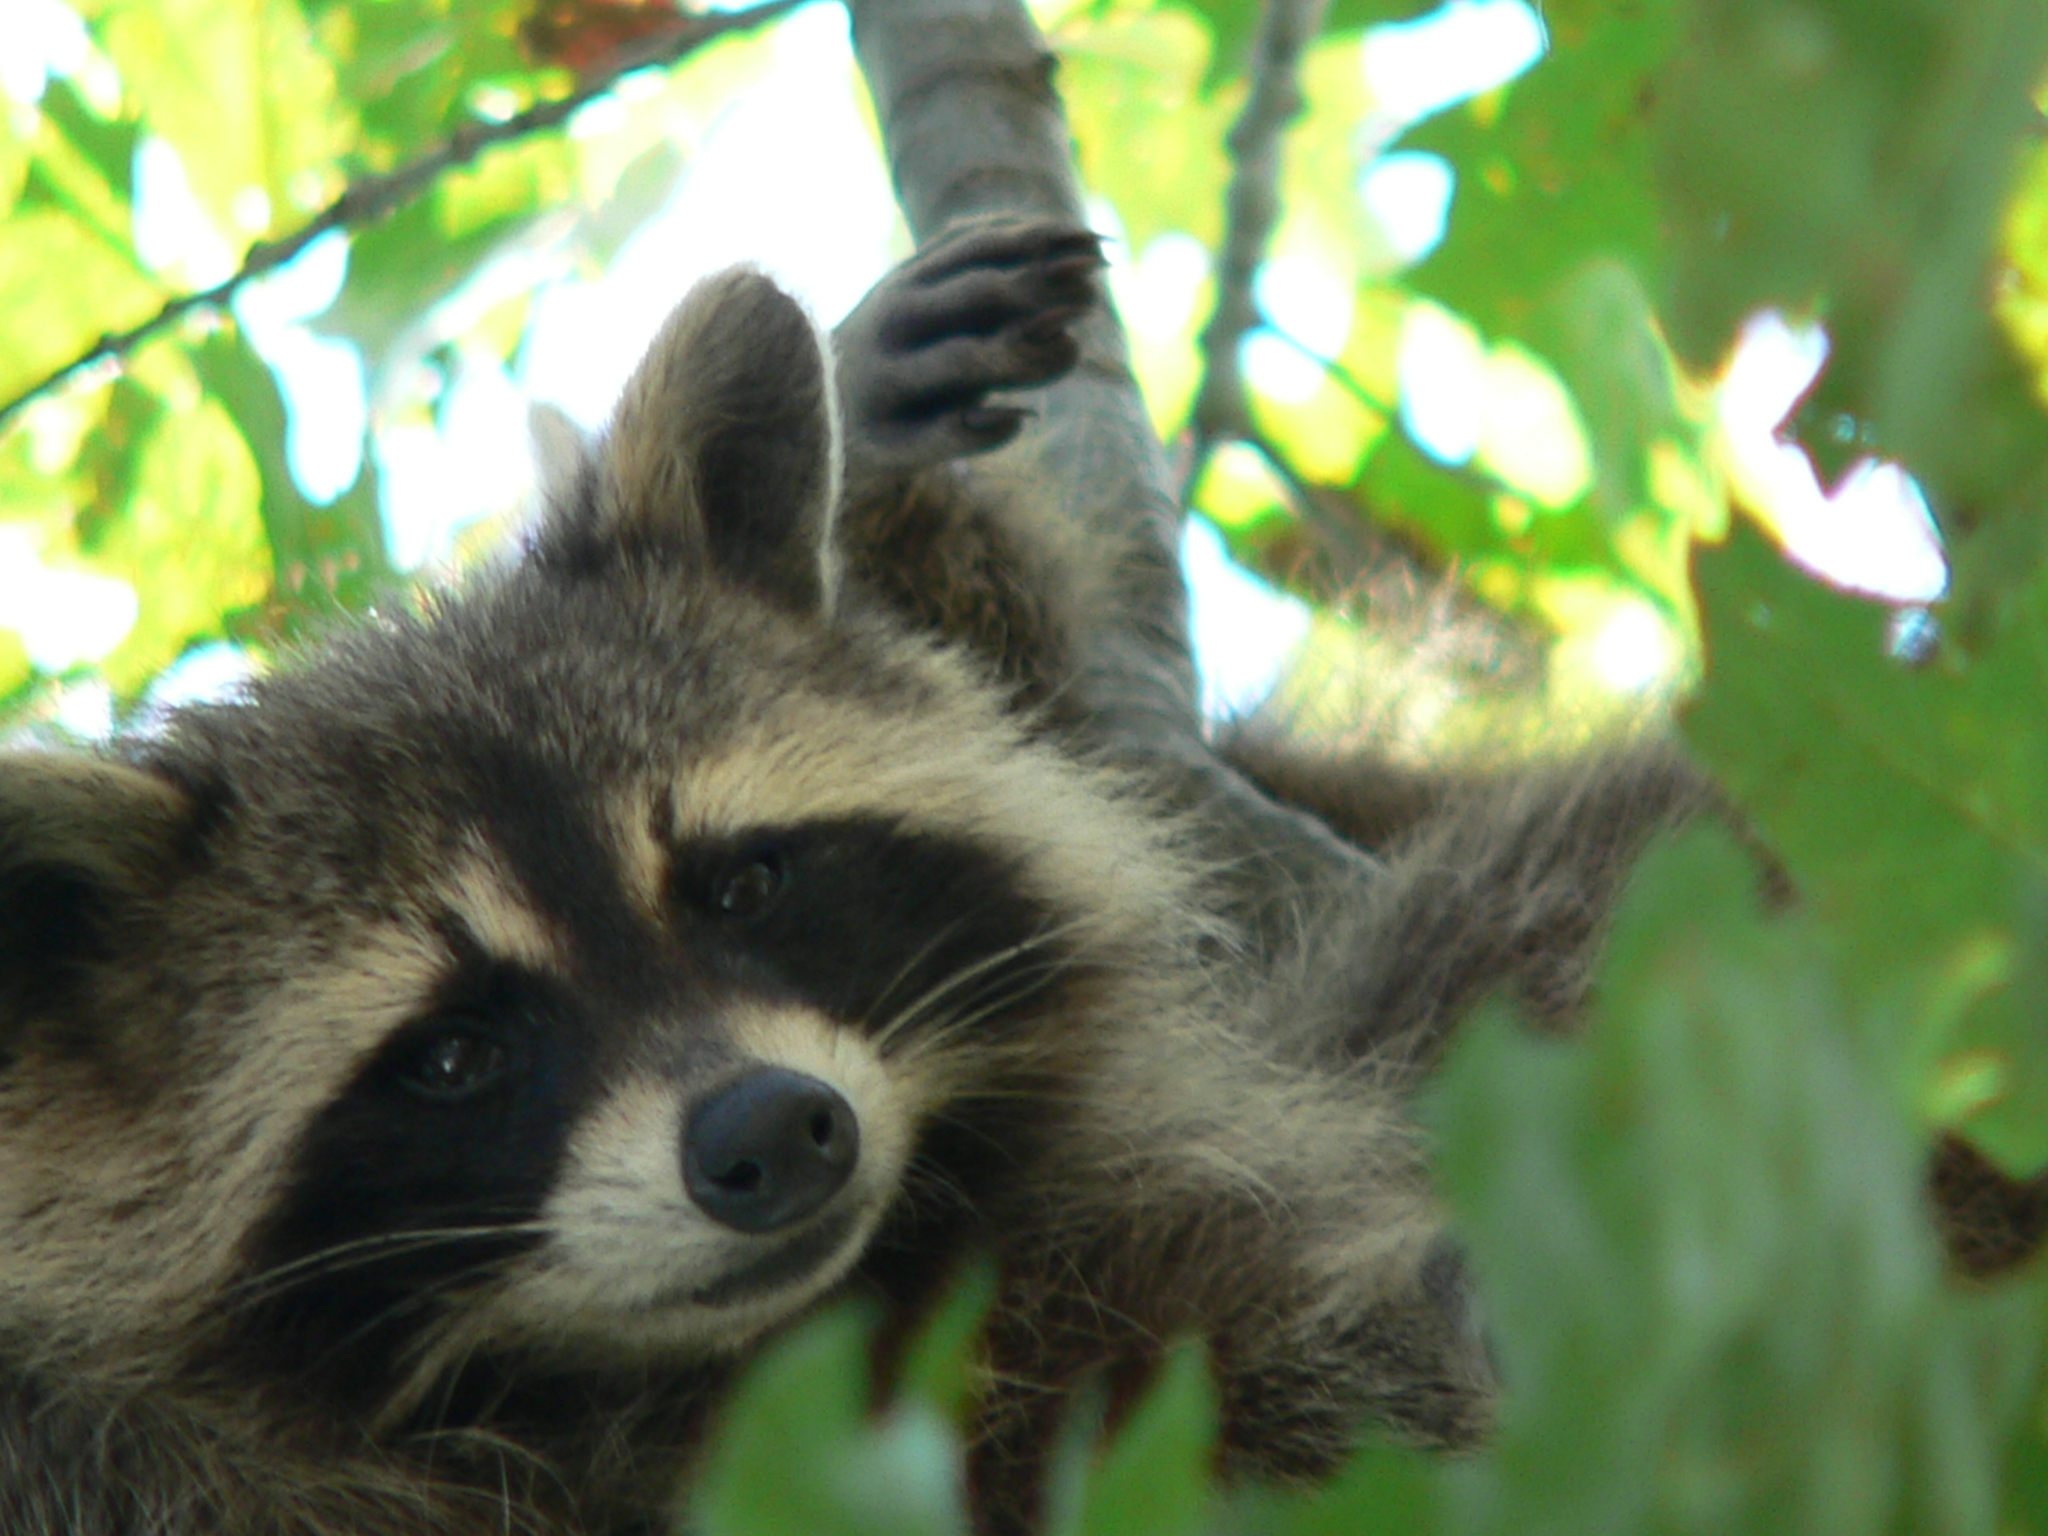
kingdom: Animalia
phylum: Chordata
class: Mammalia
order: Carnivora
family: Procyonidae
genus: Procyon
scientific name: Procyon lotor
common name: Raccoon
